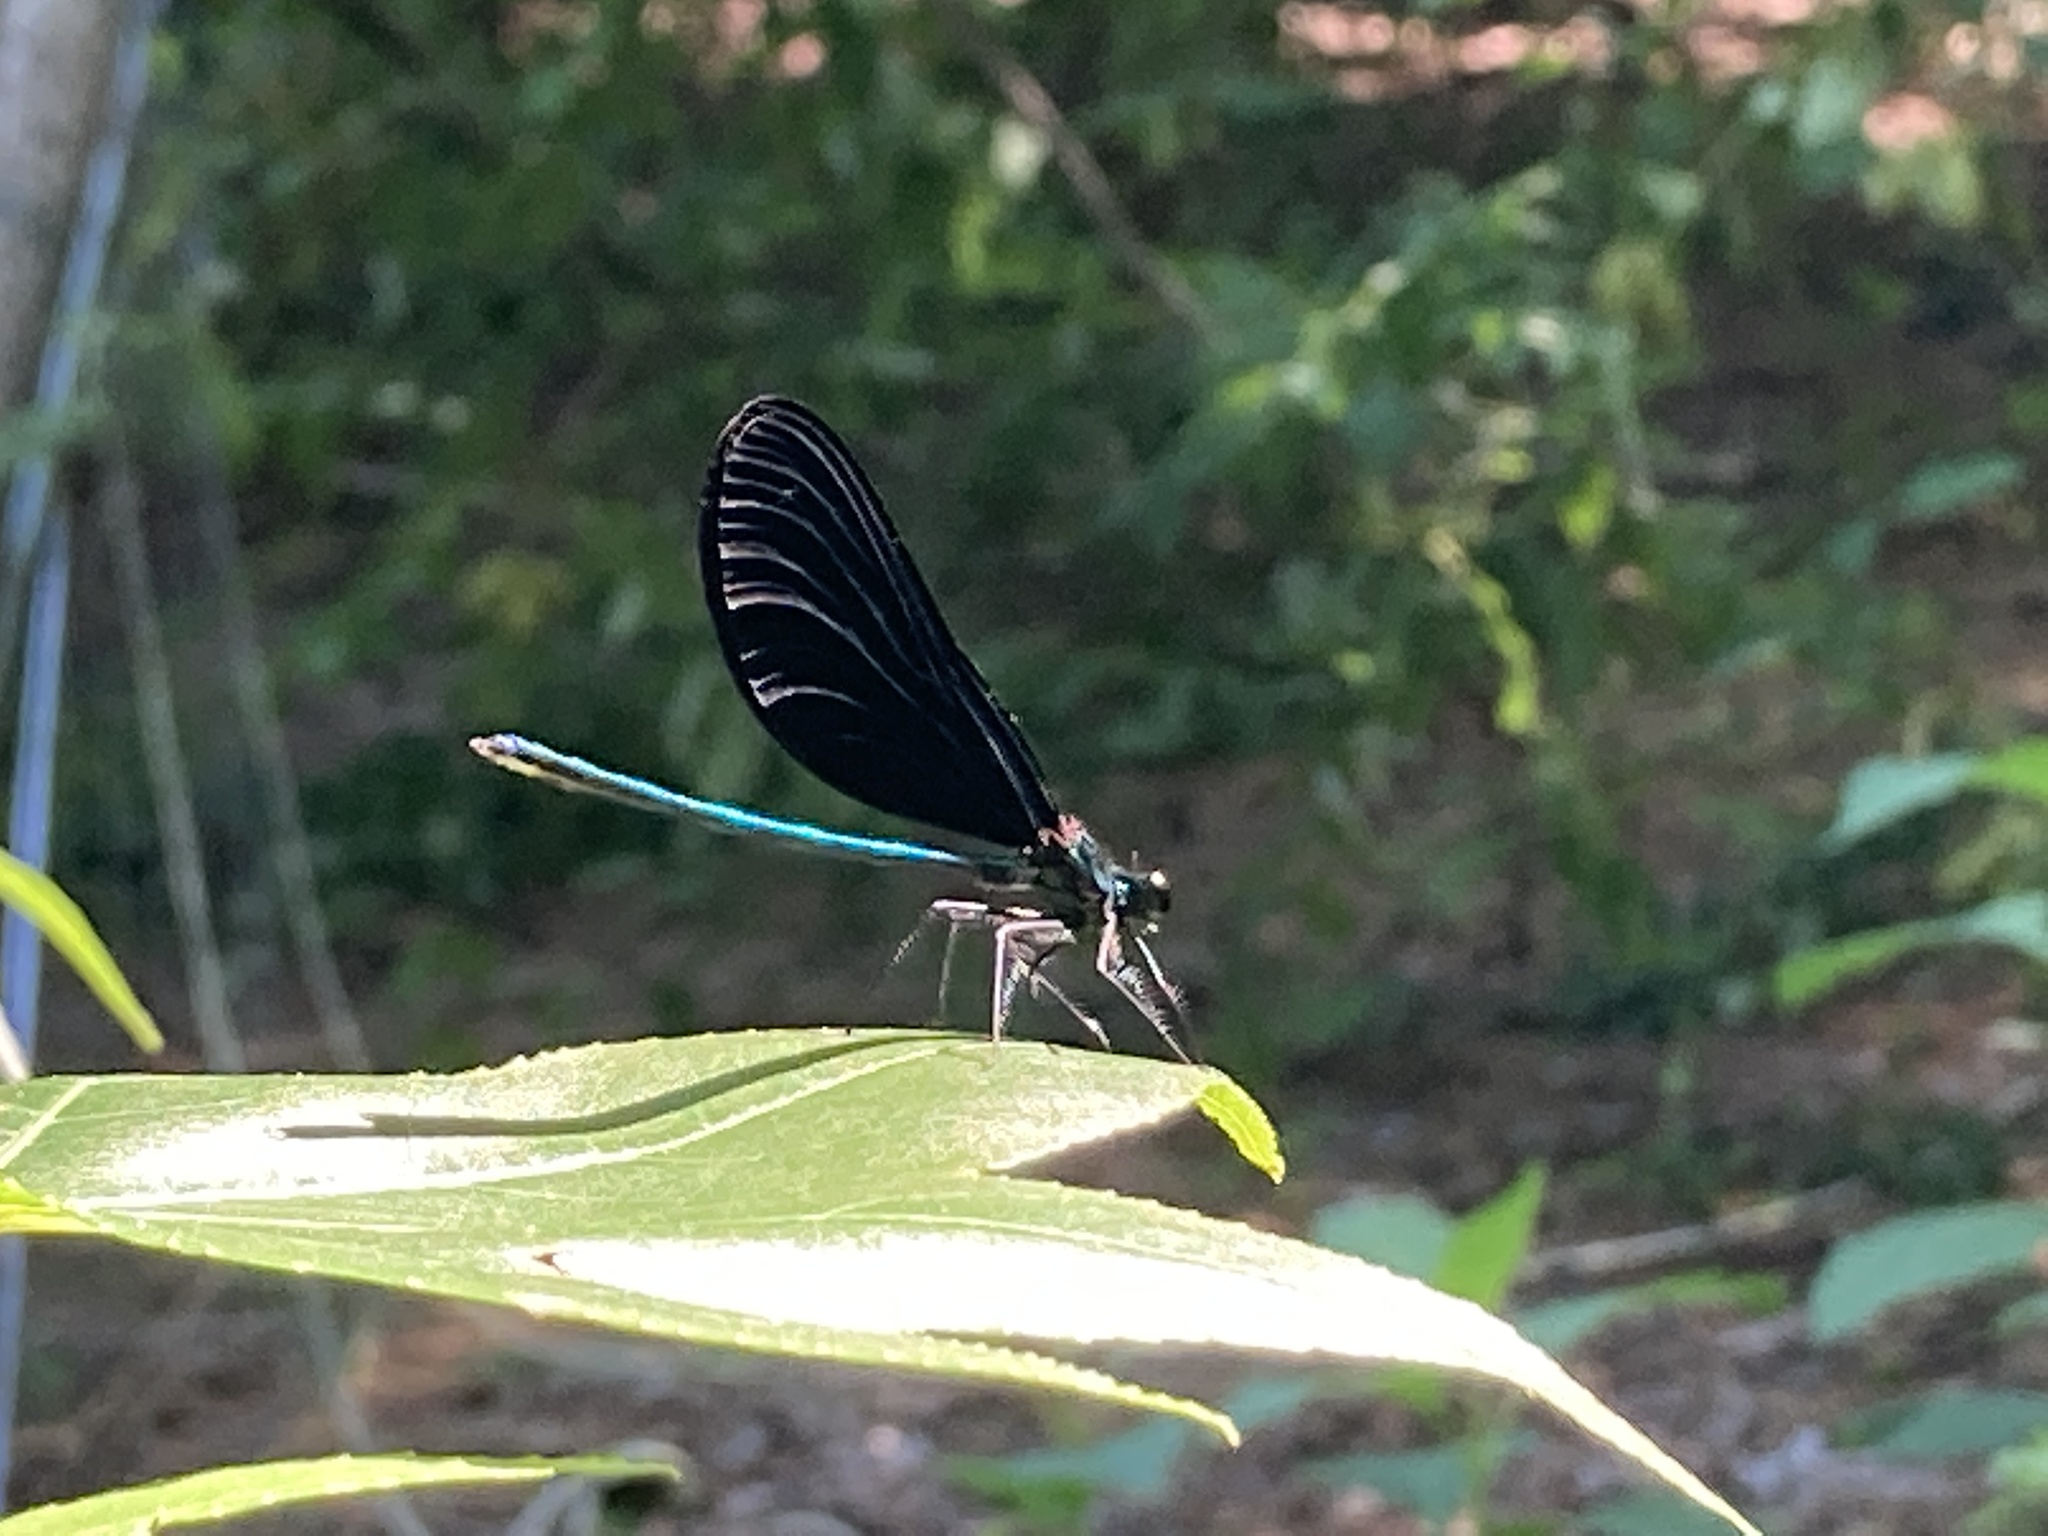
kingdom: Animalia
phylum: Arthropoda
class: Insecta
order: Odonata
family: Calopterygidae
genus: Calopteryx
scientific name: Calopteryx maculata
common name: Ebony jewelwing
